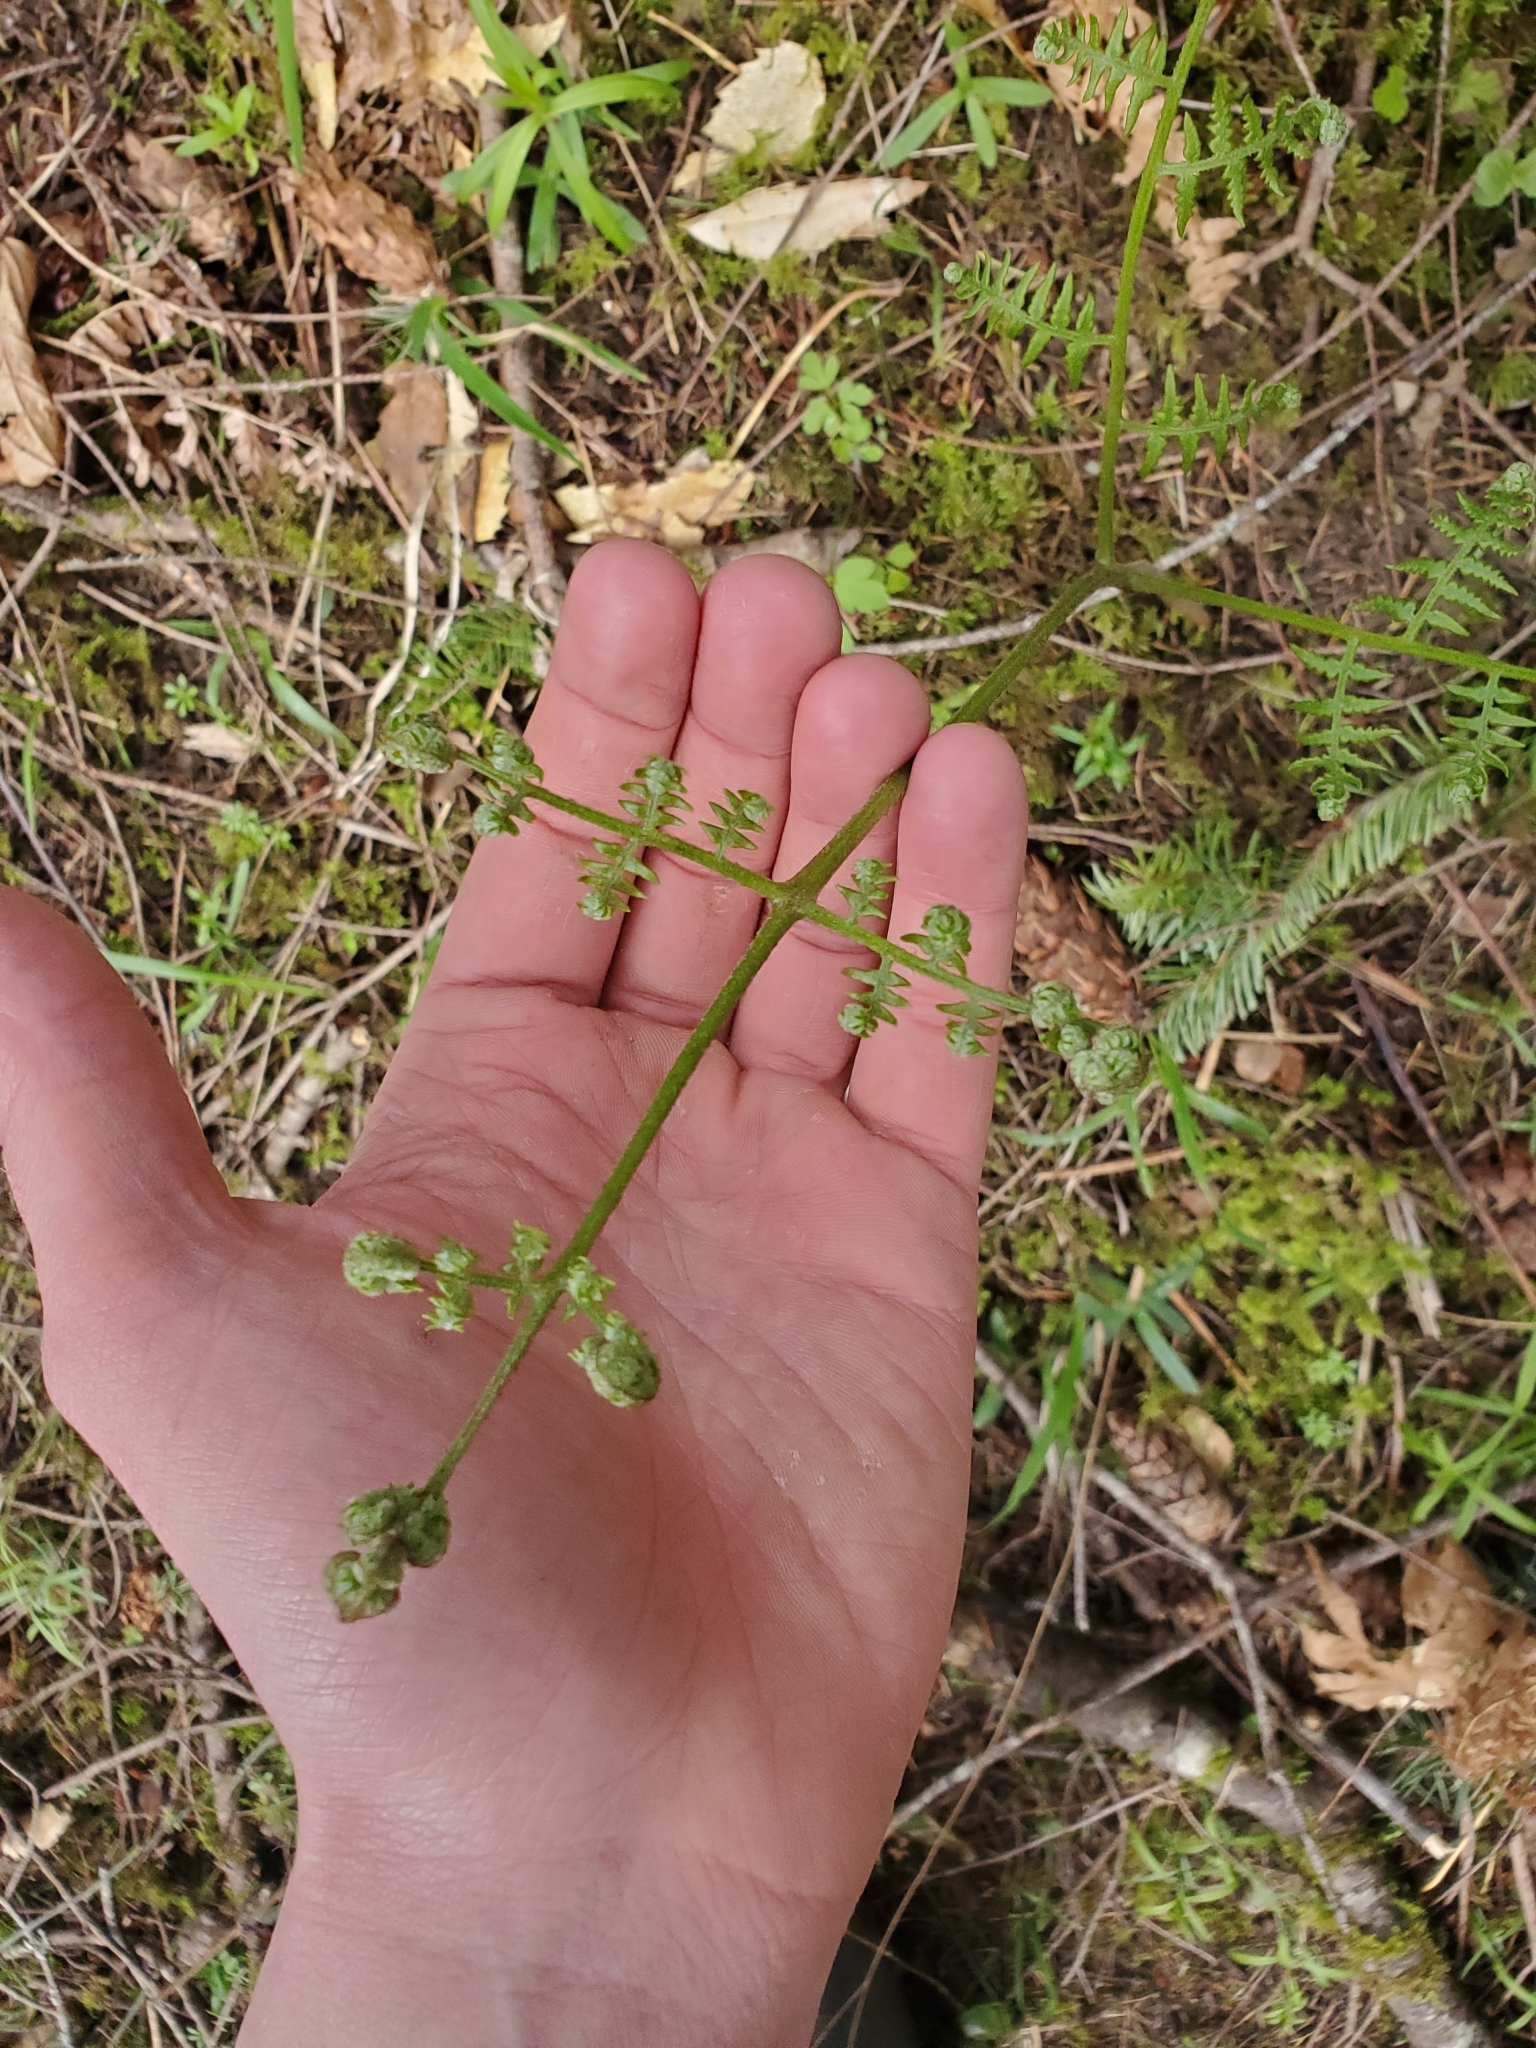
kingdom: Plantae
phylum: Tracheophyta
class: Polypodiopsida
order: Polypodiales
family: Dennstaedtiaceae
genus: Pteridium
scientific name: Pteridium aquilinum
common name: Bracken
